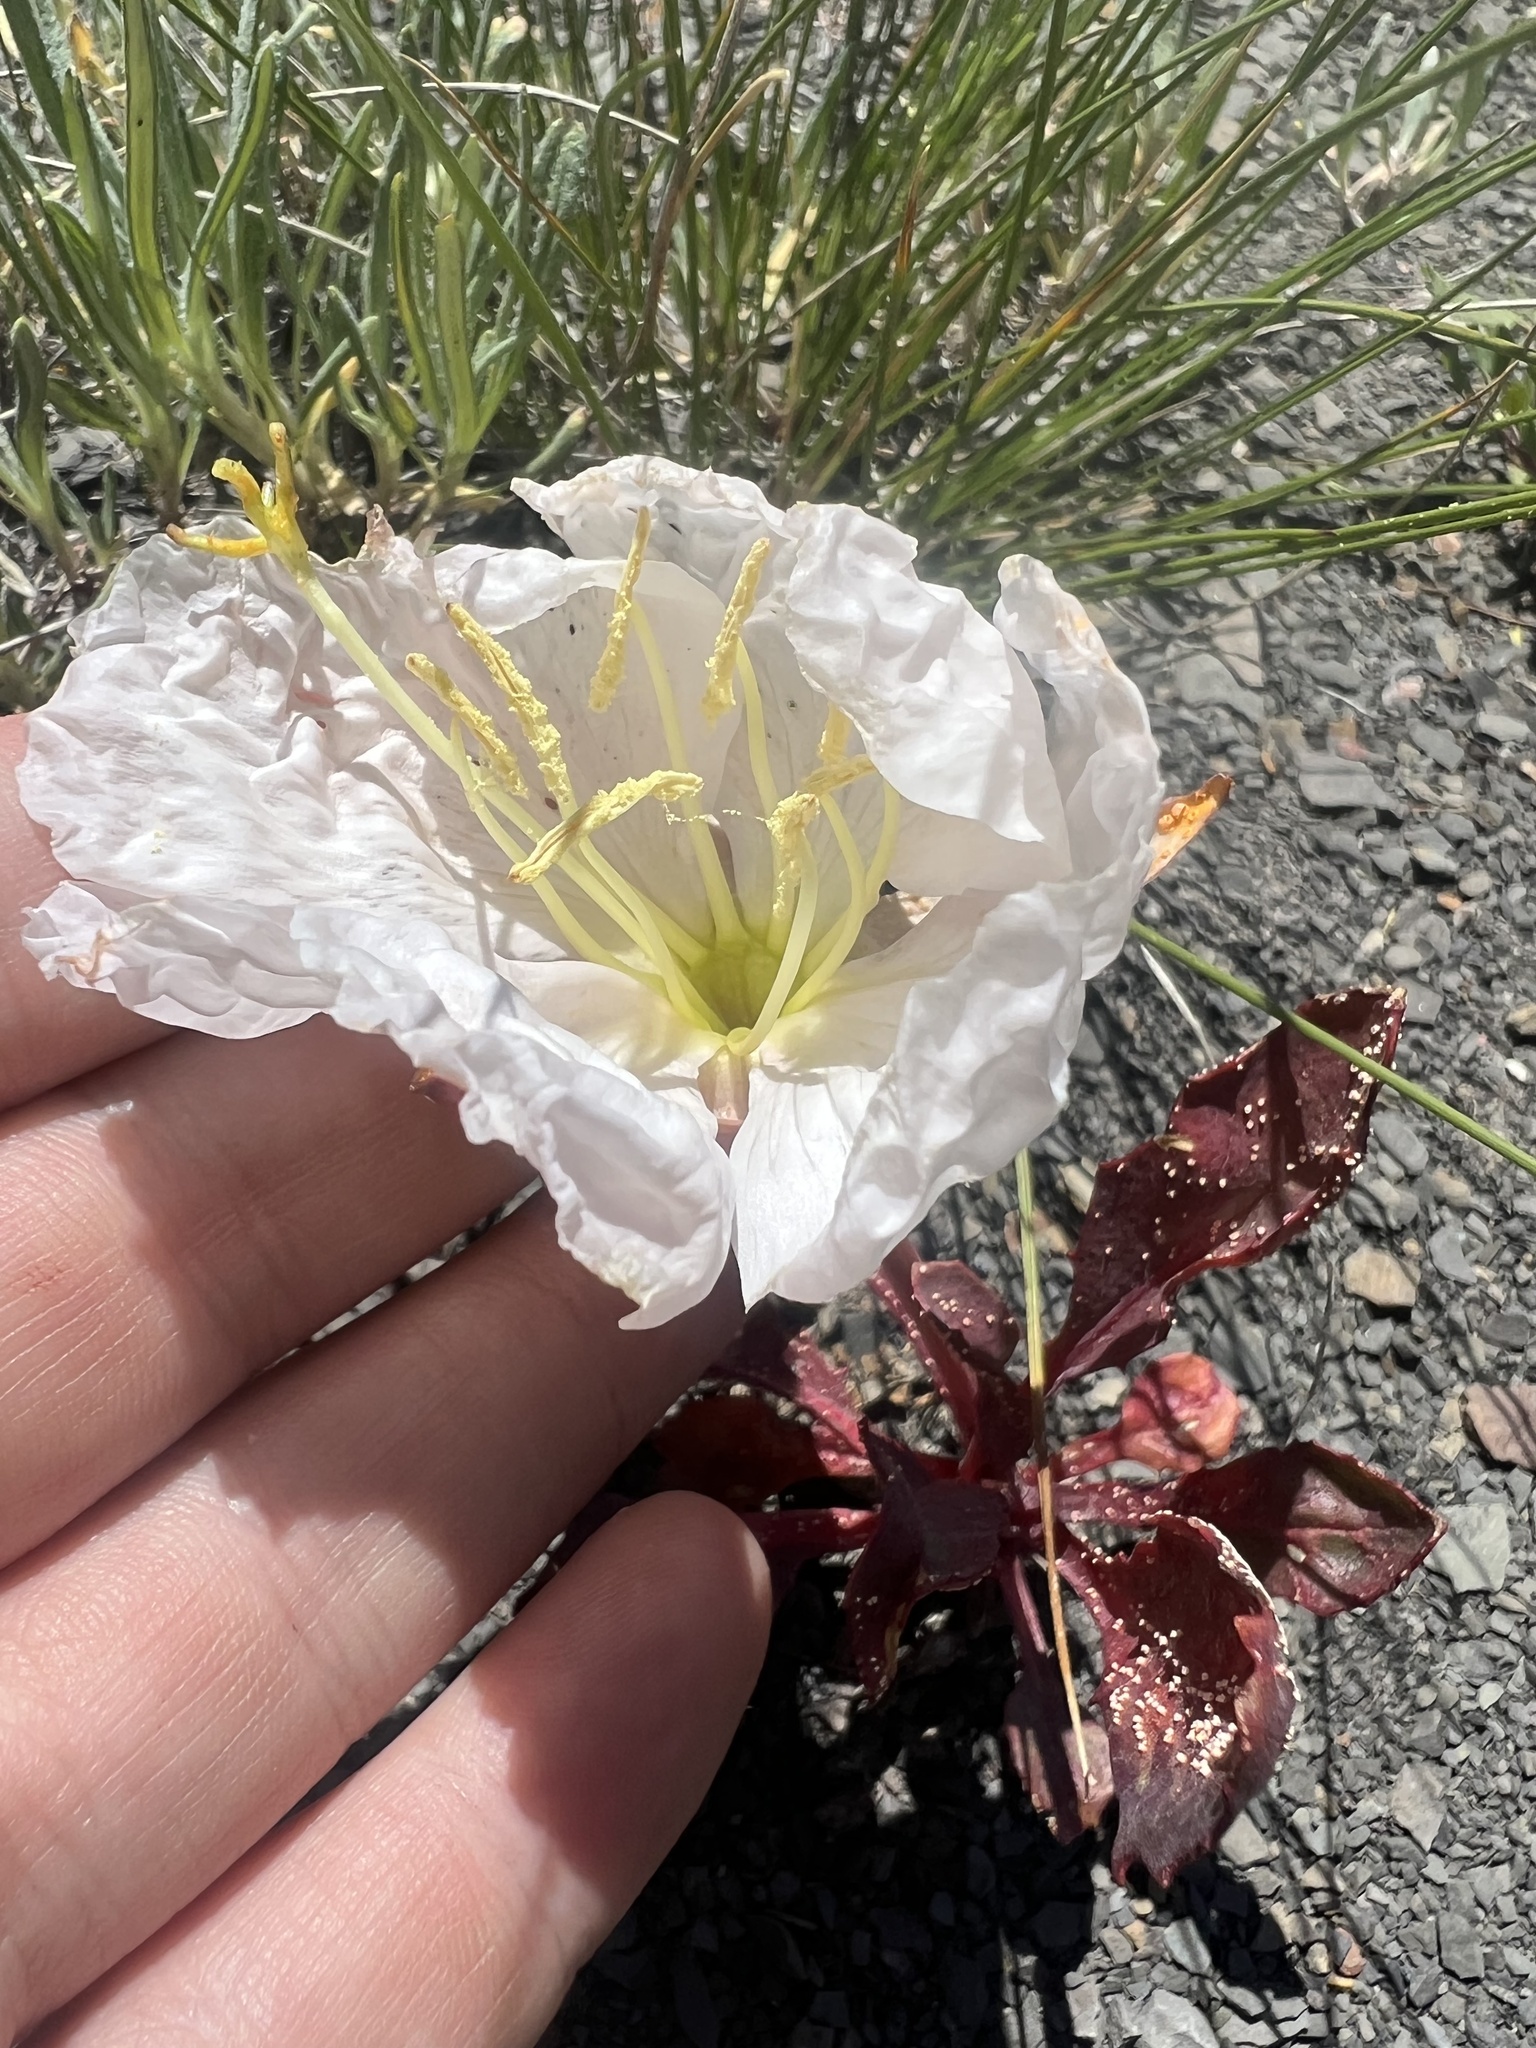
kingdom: Plantae
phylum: Tracheophyta
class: Magnoliopsida
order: Myrtales
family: Onagraceae
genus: Oenothera
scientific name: Oenothera cespitosa
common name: Tufted evening-primrose
